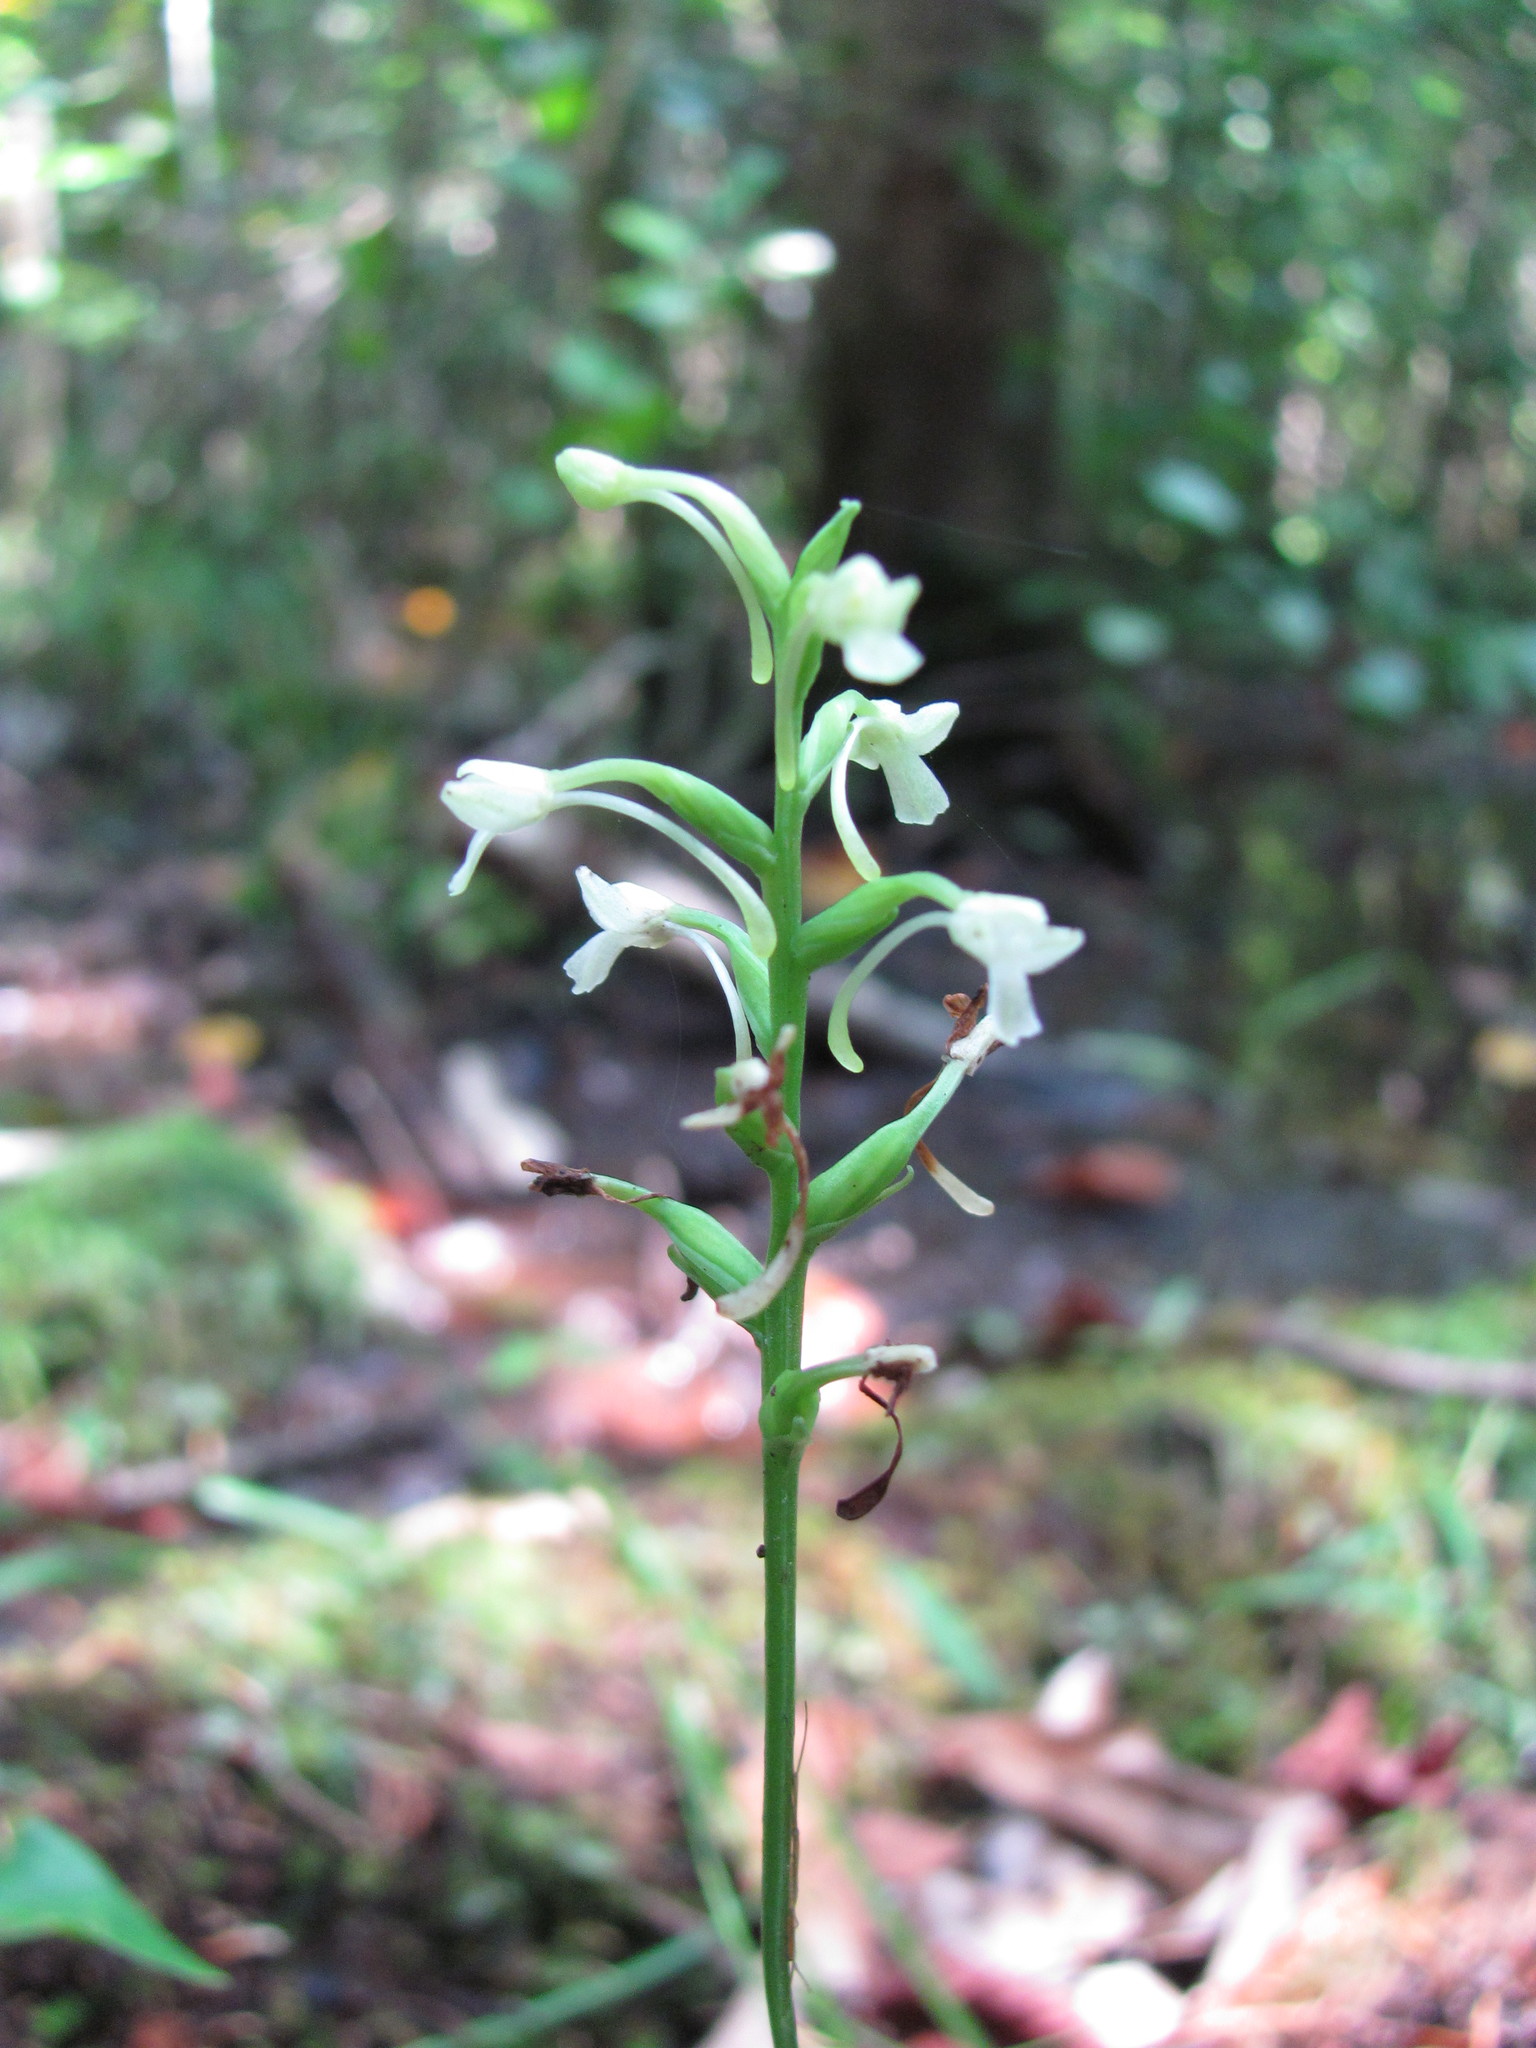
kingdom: Plantae
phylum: Tracheophyta
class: Liliopsida
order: Asparagales
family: Orchidaceae
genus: Platanthera
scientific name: Platanthera clavellata
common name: Club-spur orchid
